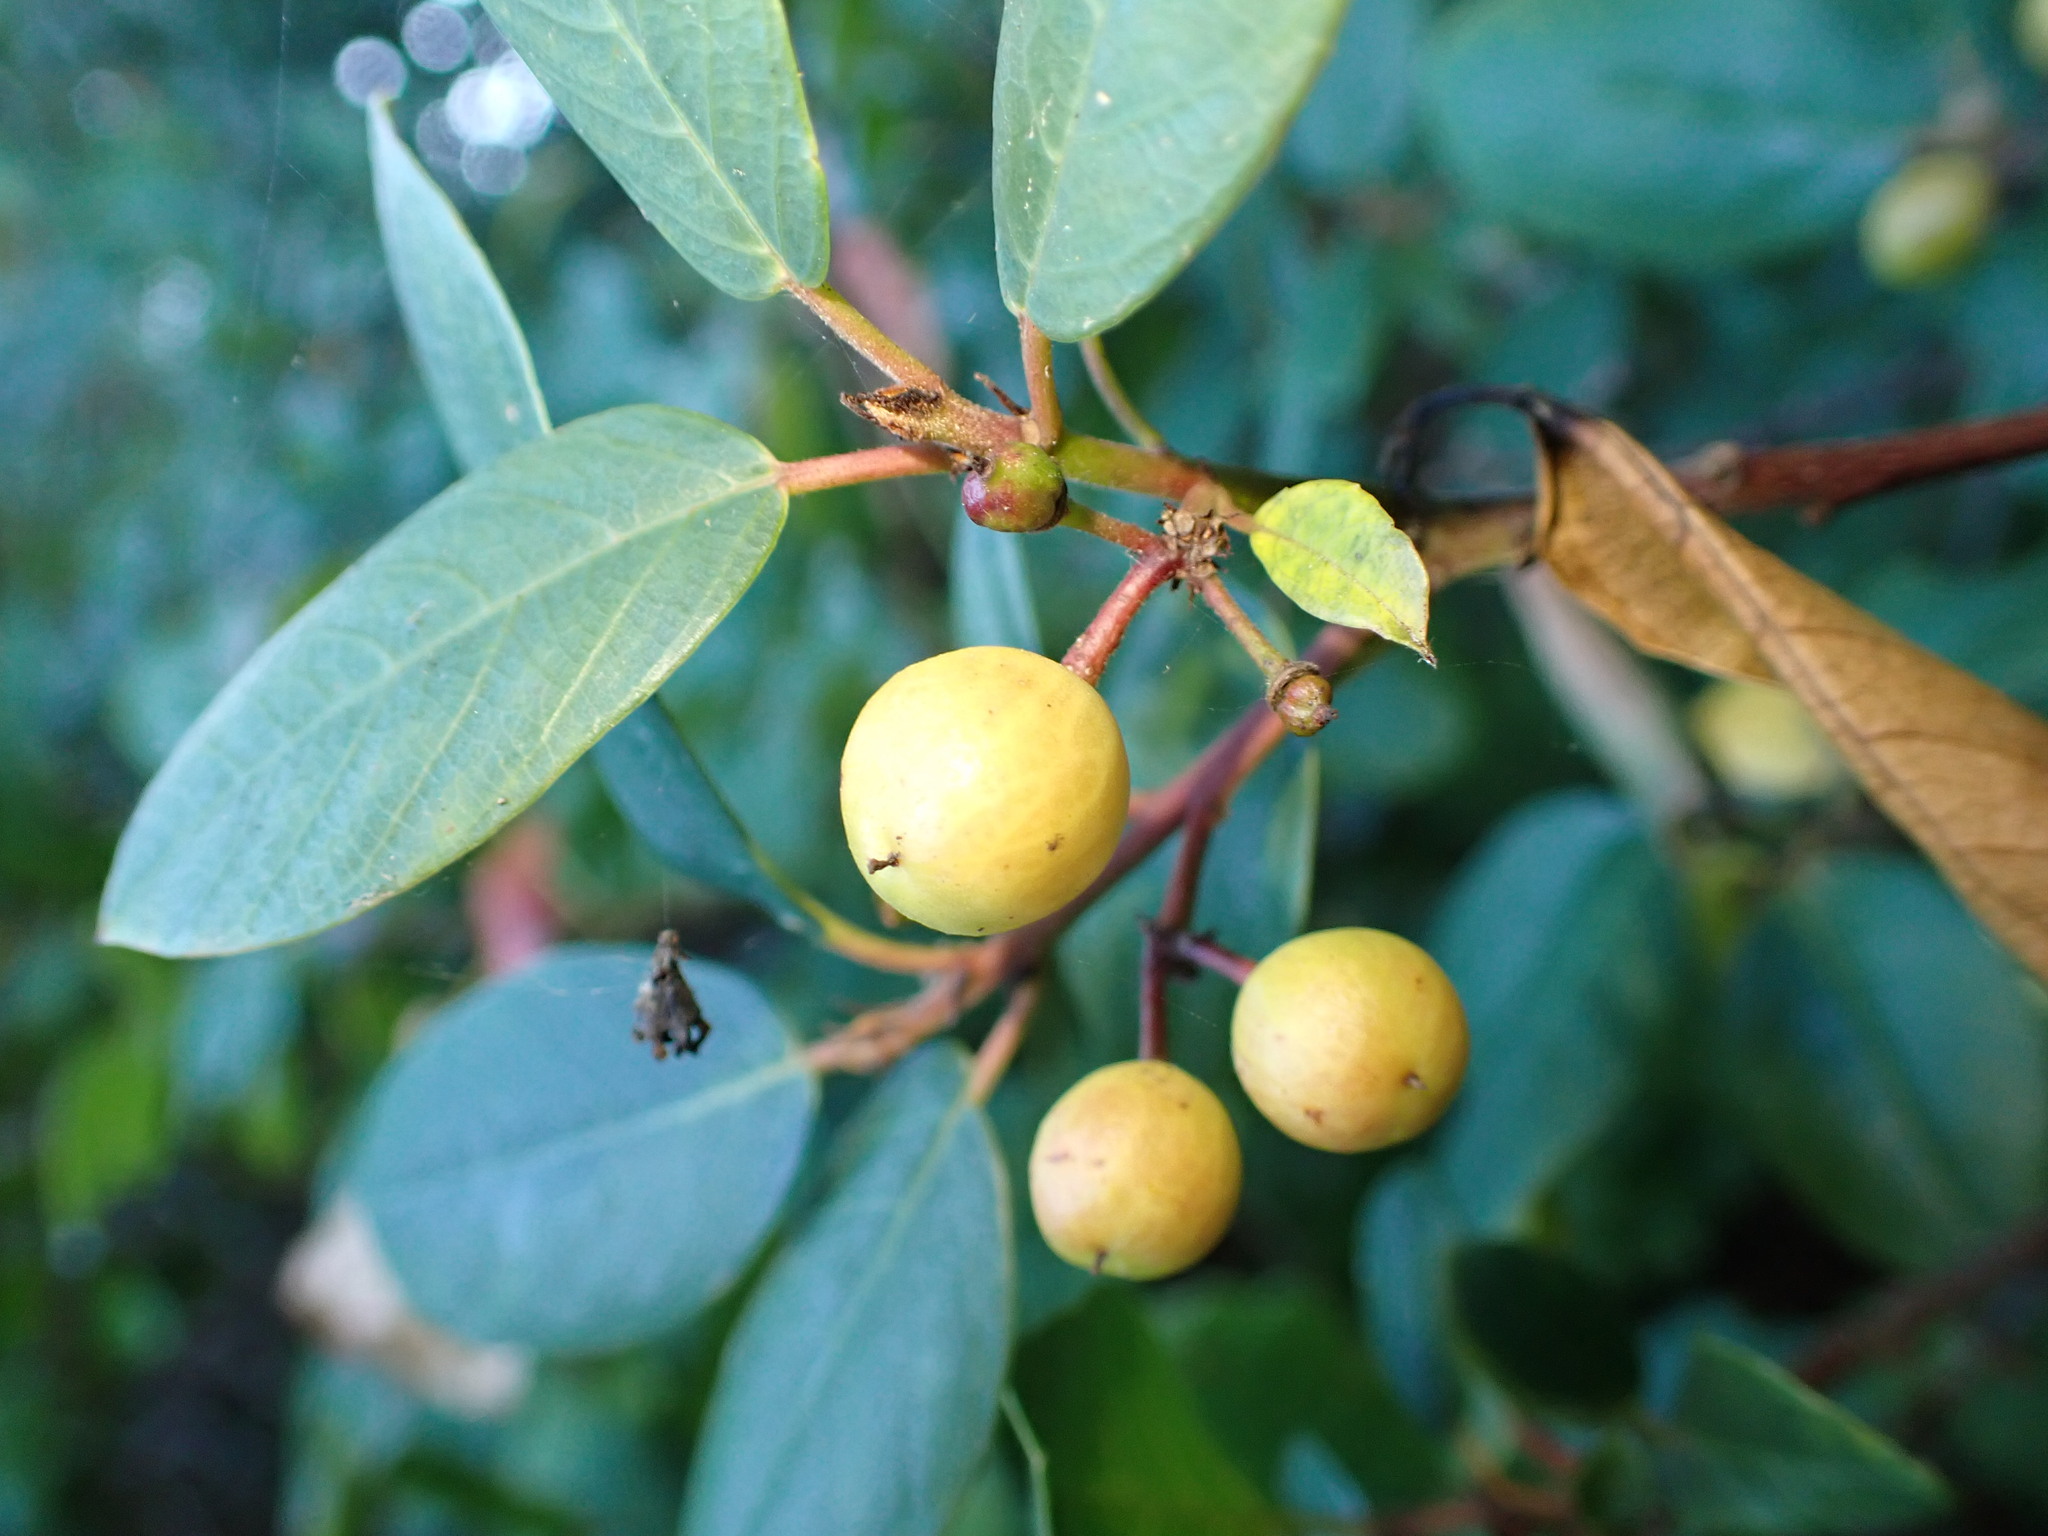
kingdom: Plantae
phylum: Tracheophyta
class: Magnoliopsida
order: Rosales
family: Rhamnaceae
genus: Frangula
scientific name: Frangula californica
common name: California buckthorn
